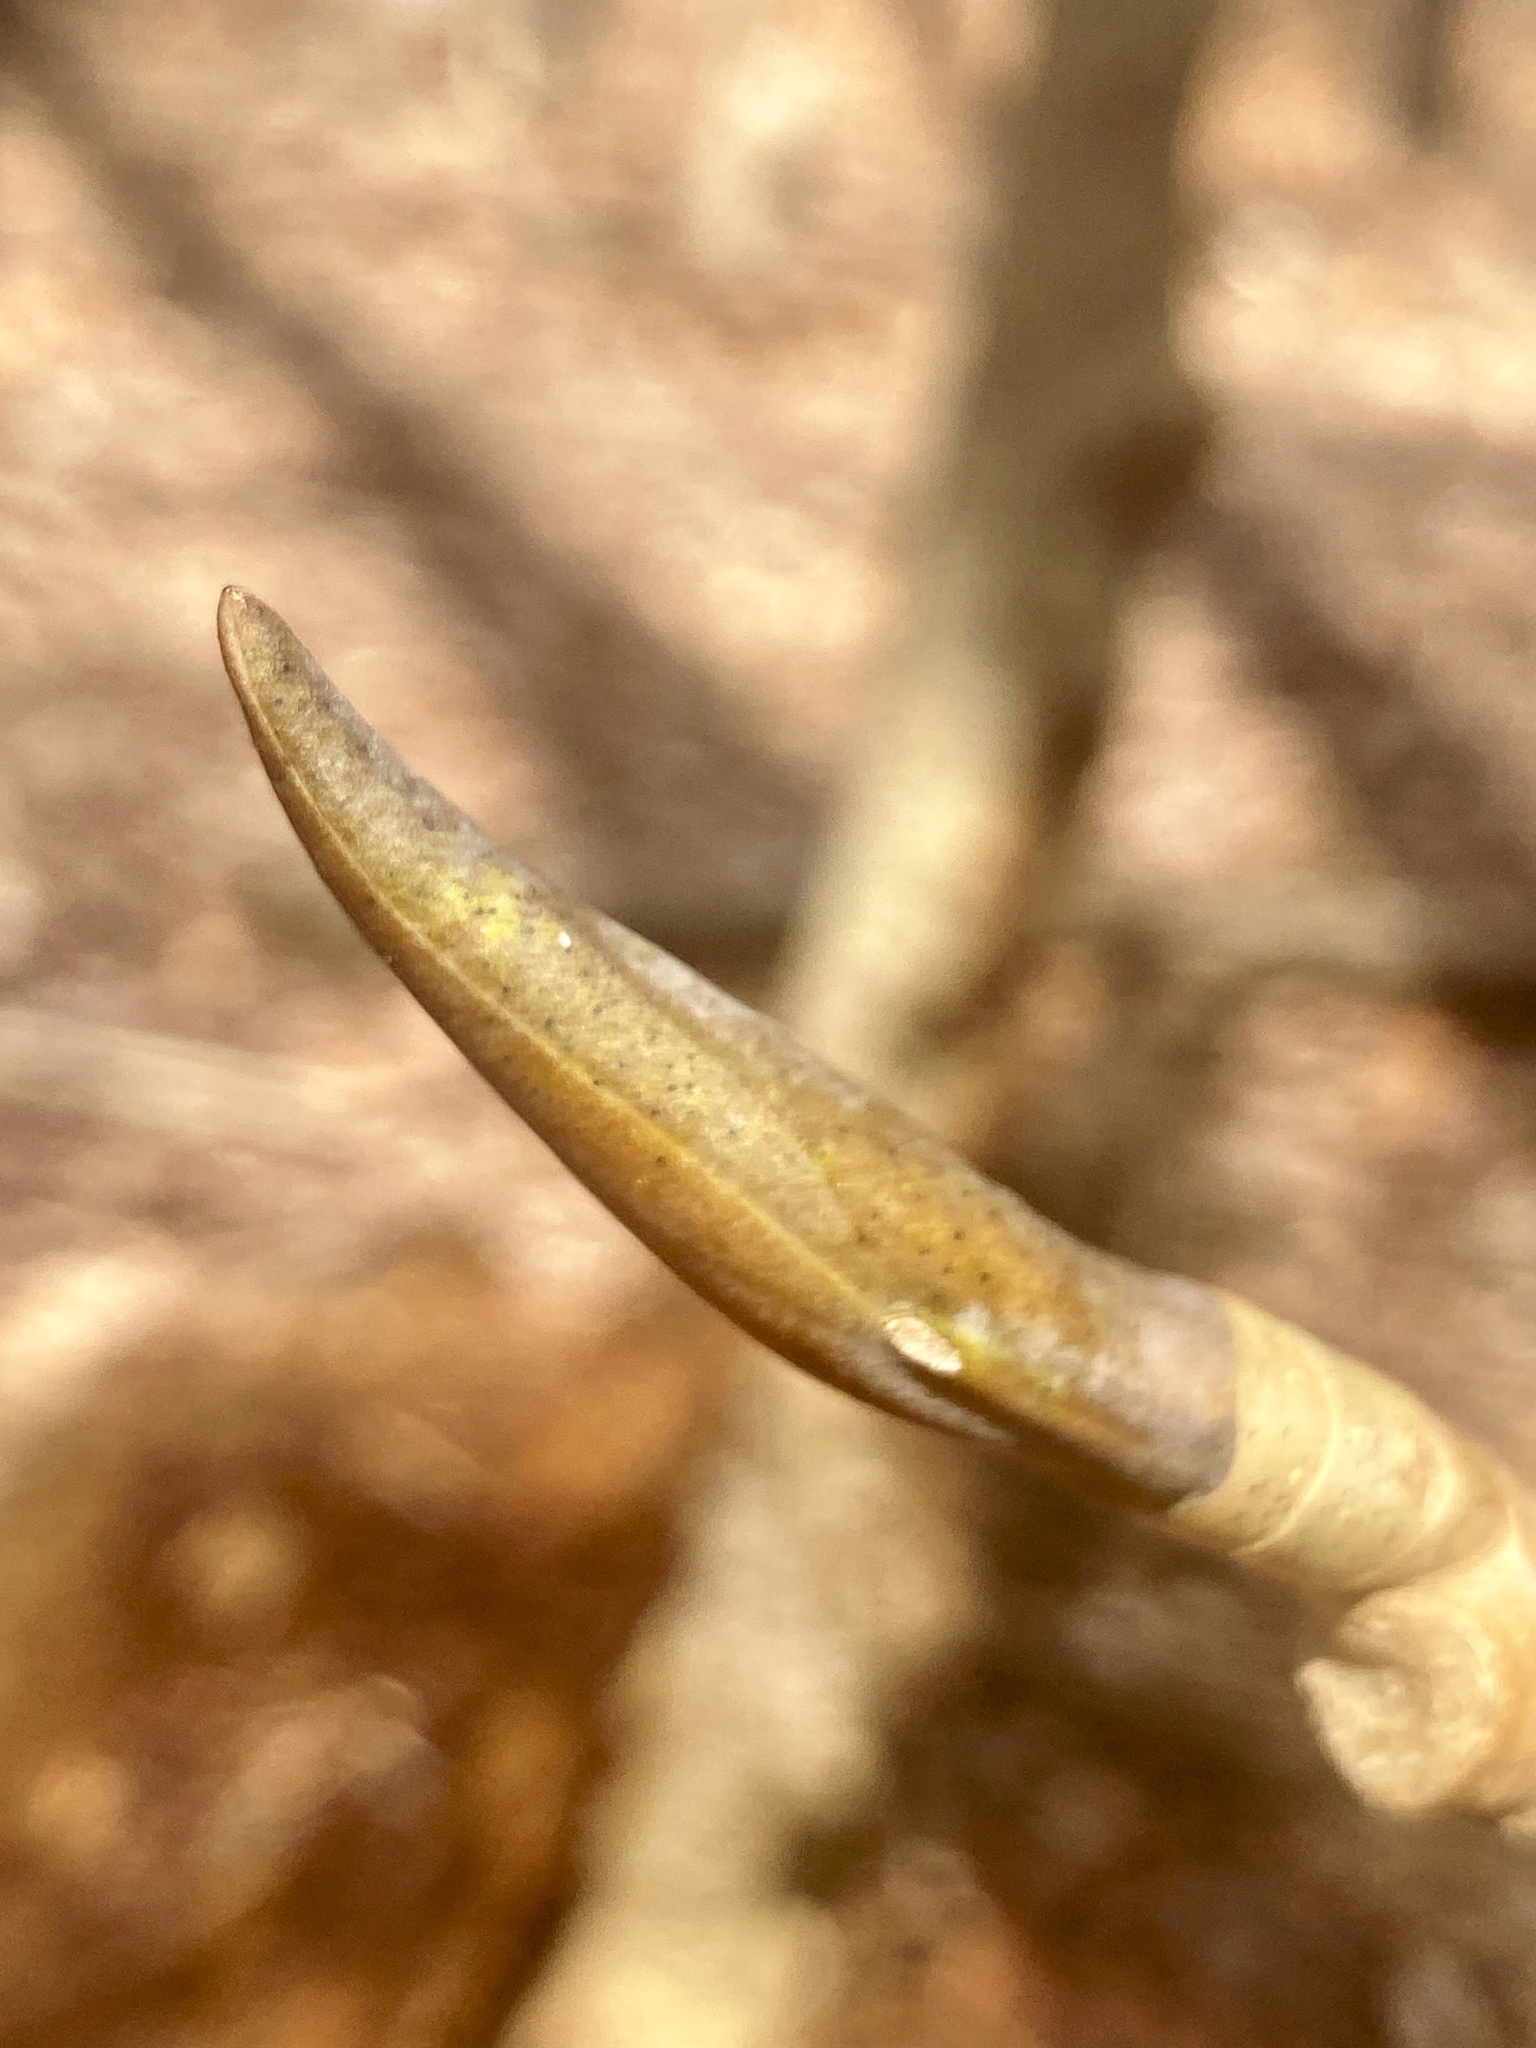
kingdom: Plantae
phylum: Tracheophyta
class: Magnoliopsida
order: Magnoliales
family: Magnoliaceae
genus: Magnolia
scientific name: Magnolia tripetala
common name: Umbrella magnolia
